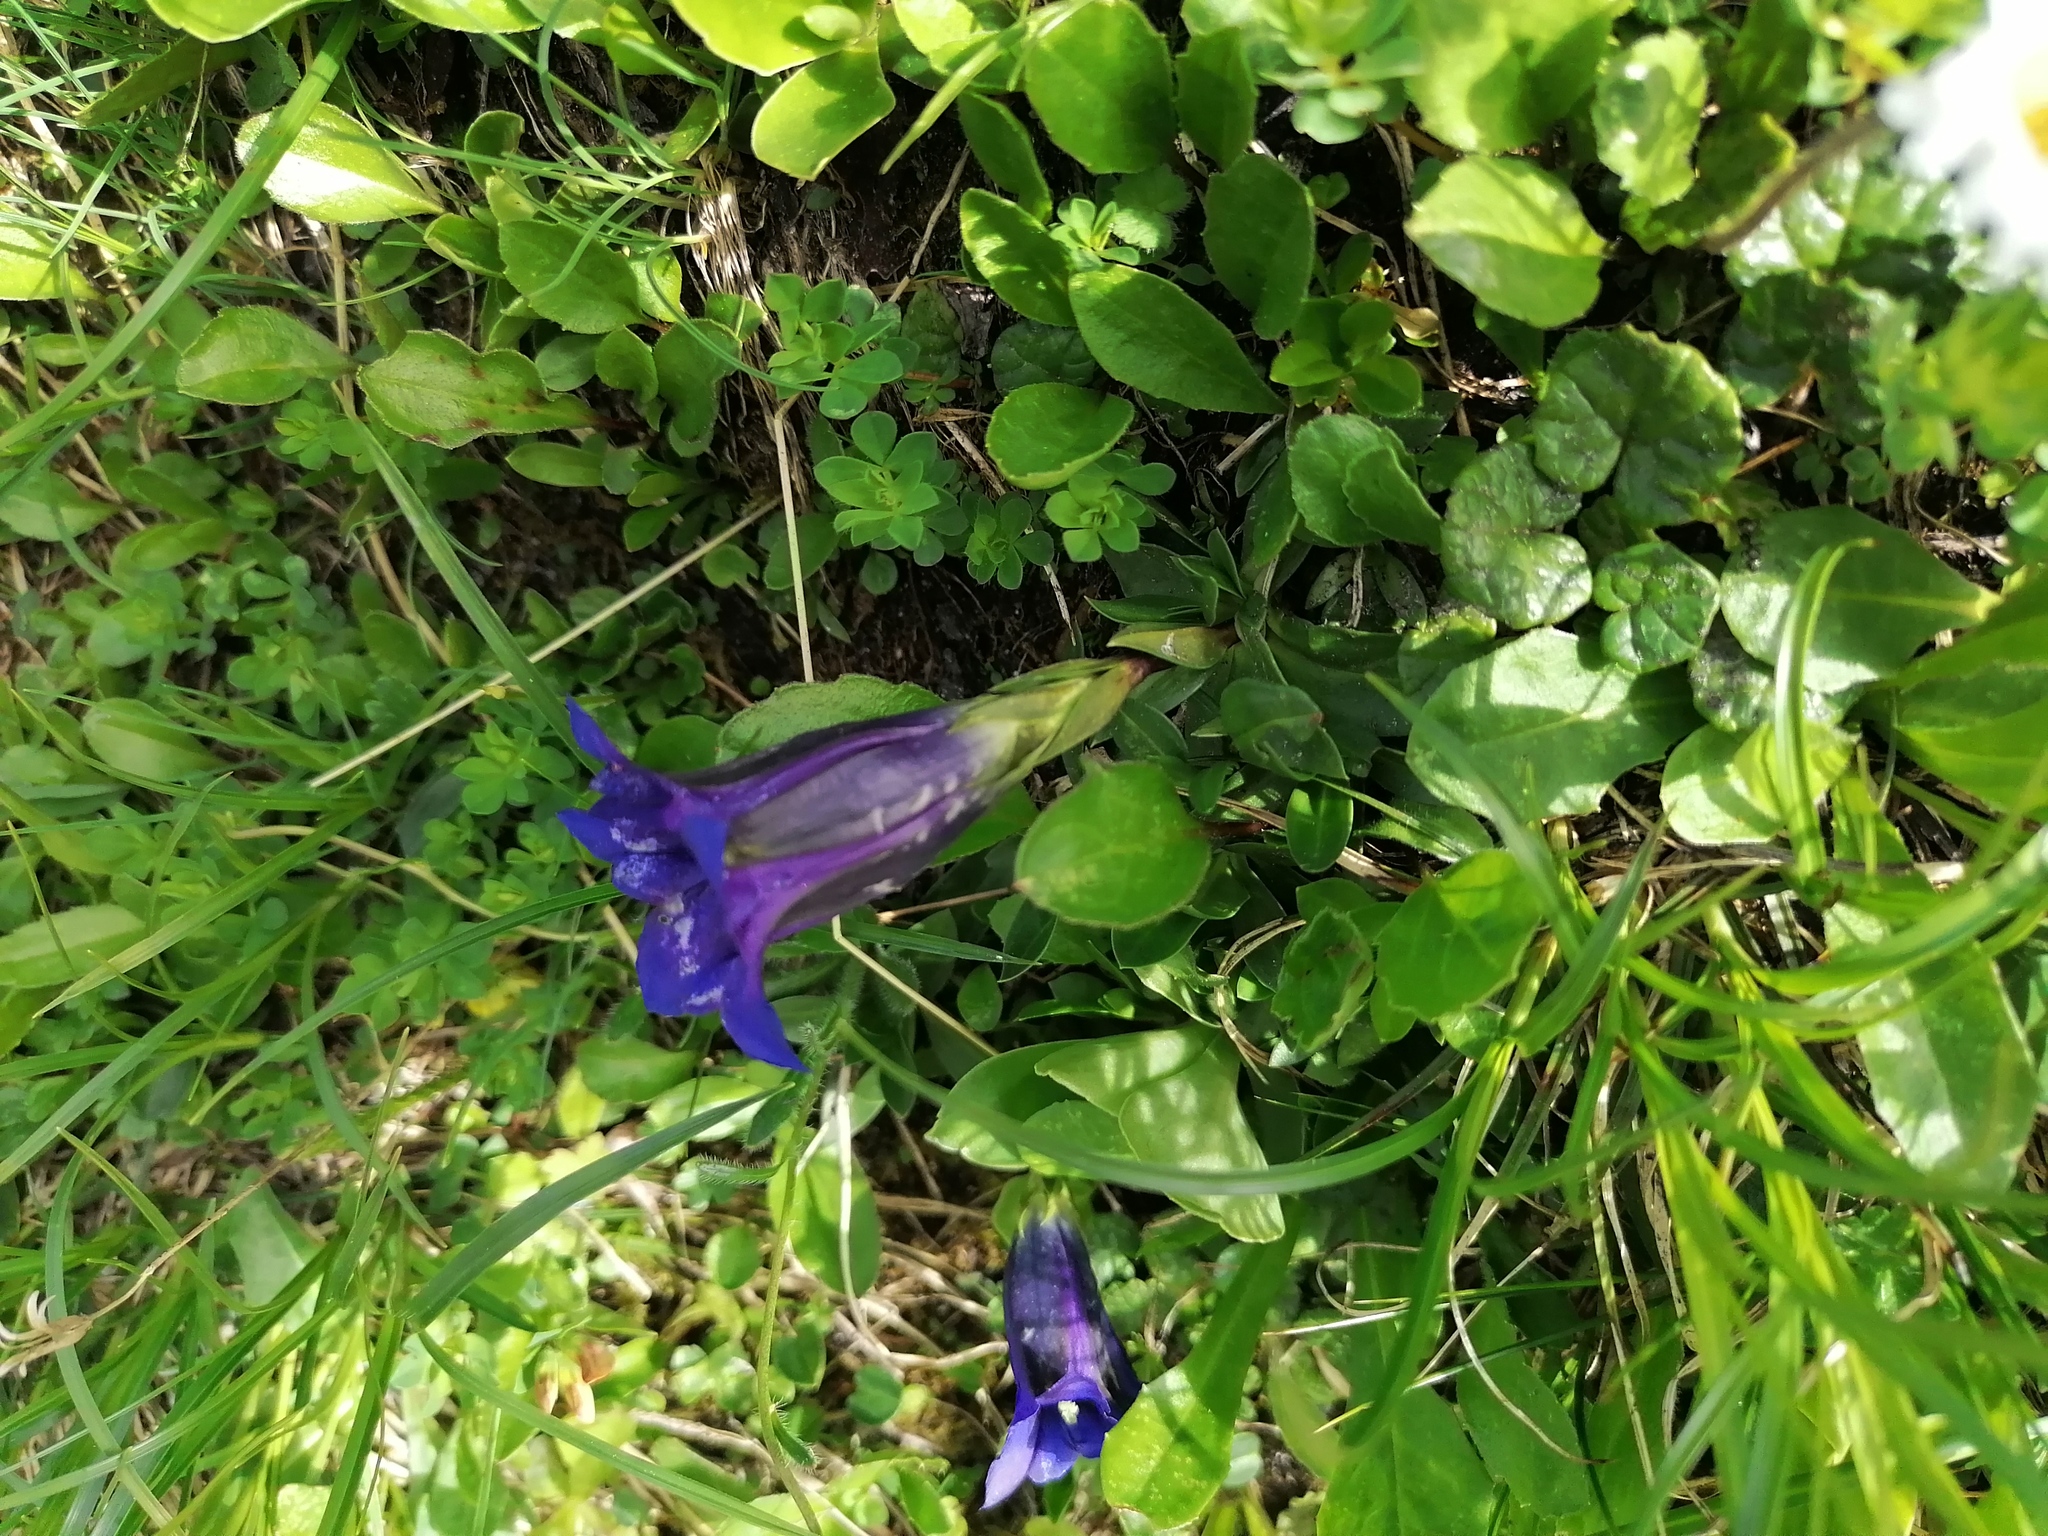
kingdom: Plantae
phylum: Tracheophyta
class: Magnoliopsida
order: Gentianales
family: Gentianaceae
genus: Gentiana
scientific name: Gentiana clusii
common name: Trumpet gentian
